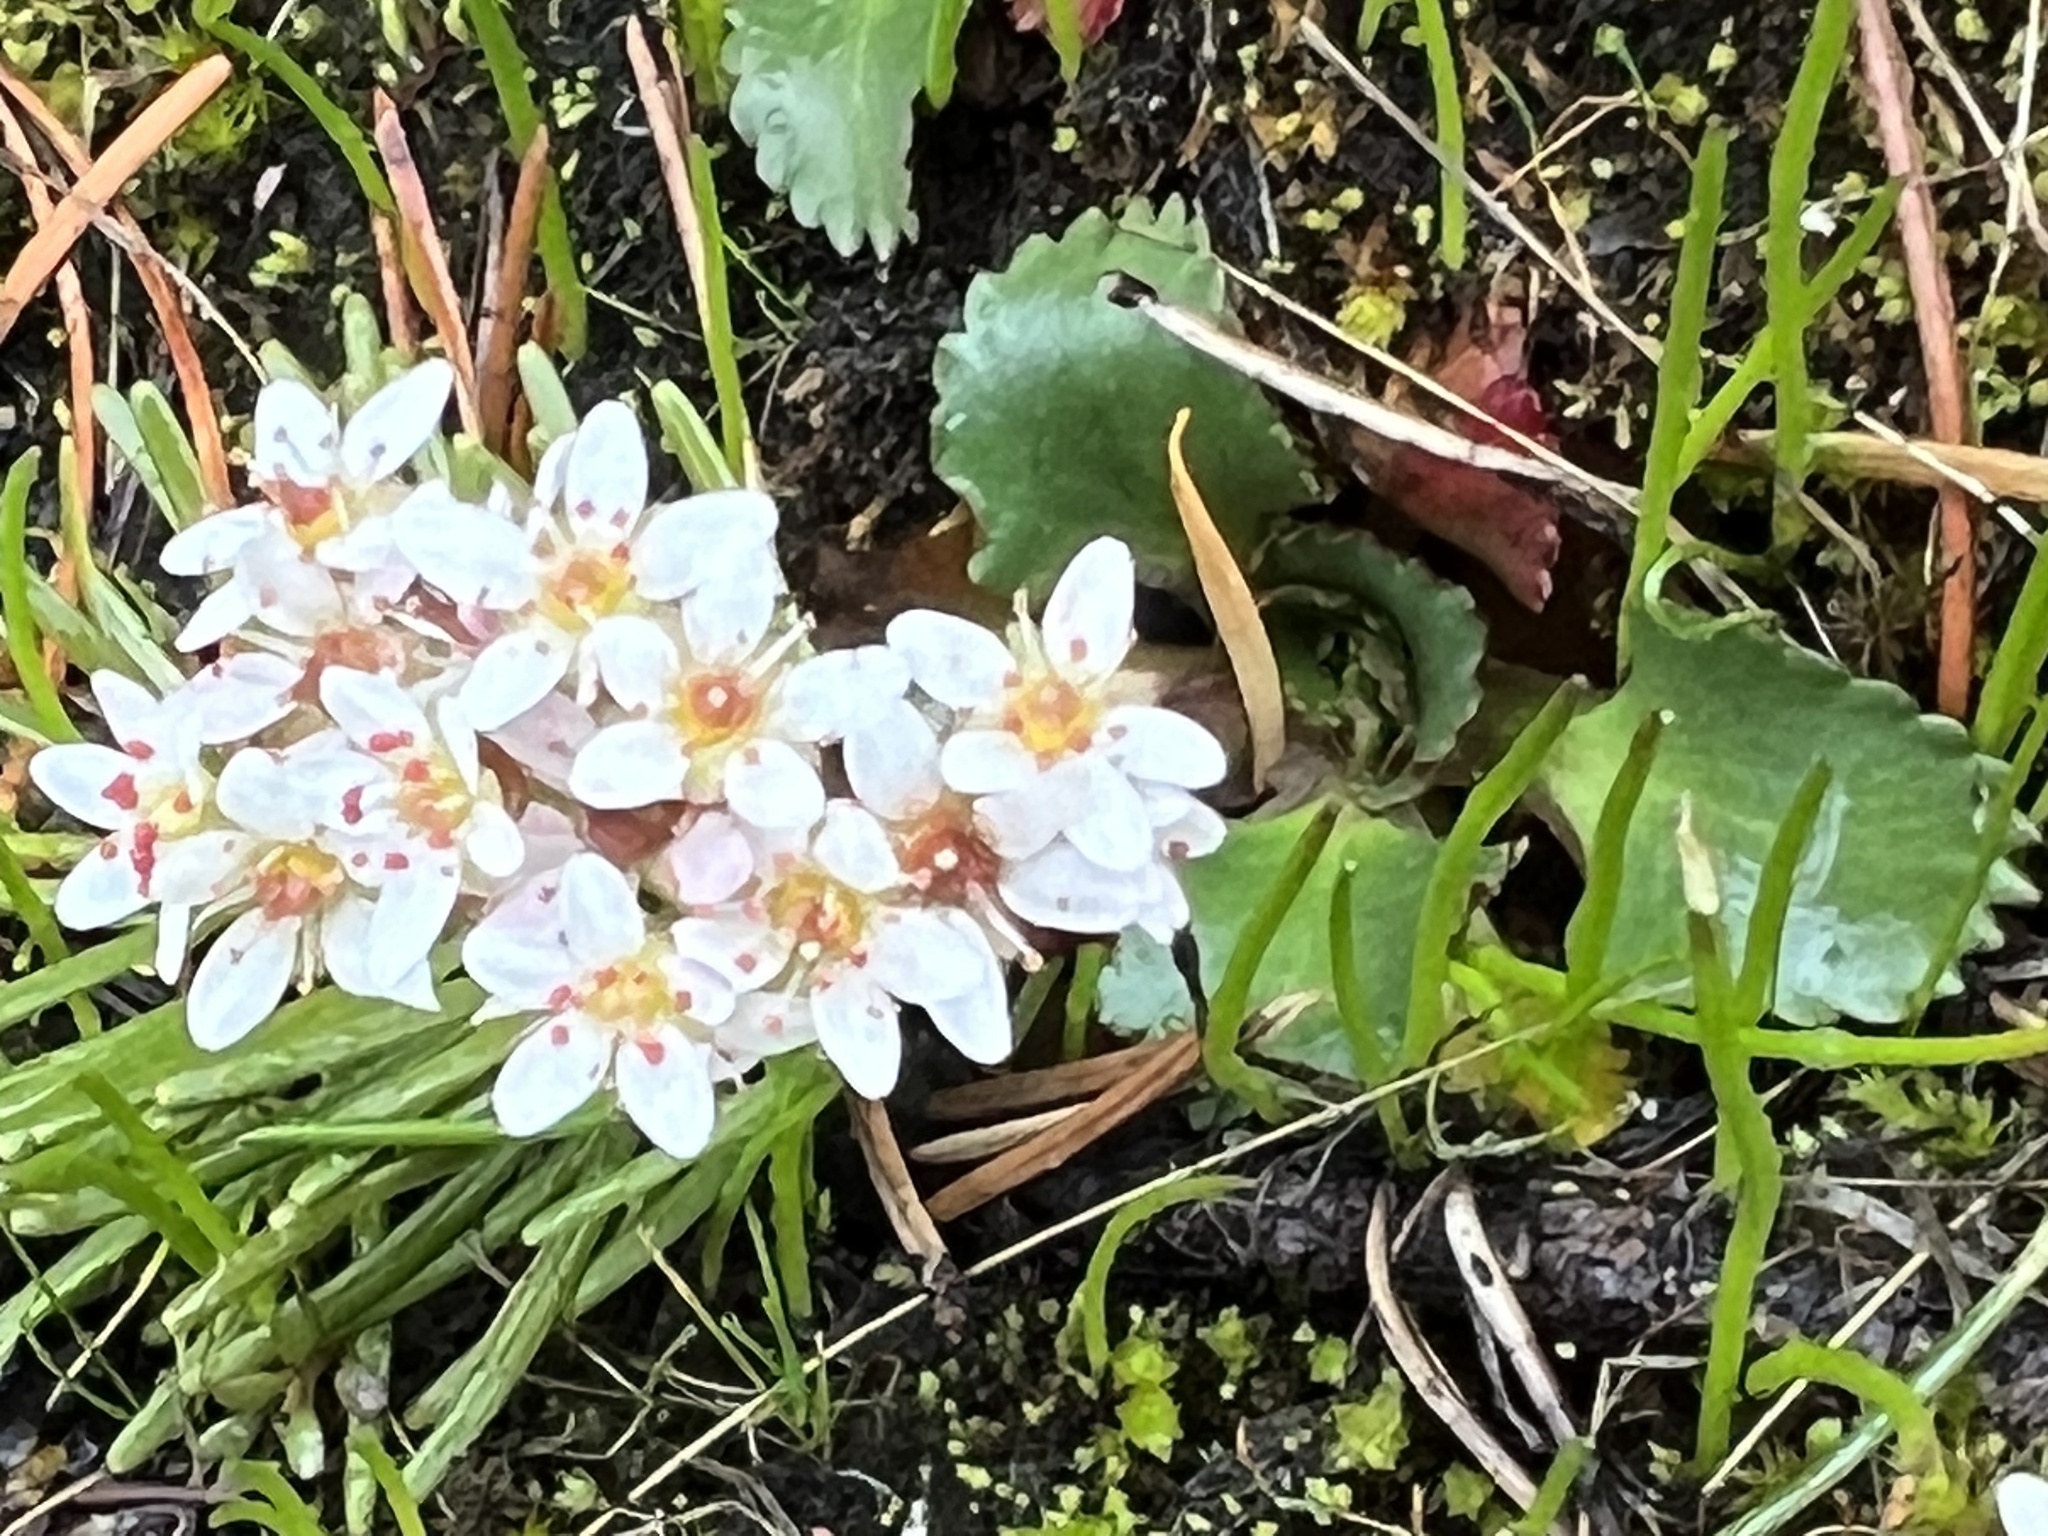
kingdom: Plantae
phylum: Tracheophyta
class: Magnoliopsida
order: Saxifragales
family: Saxifragaceae
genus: Micranthes
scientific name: Micranthes rufidula
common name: Rustyhair saxifrage
